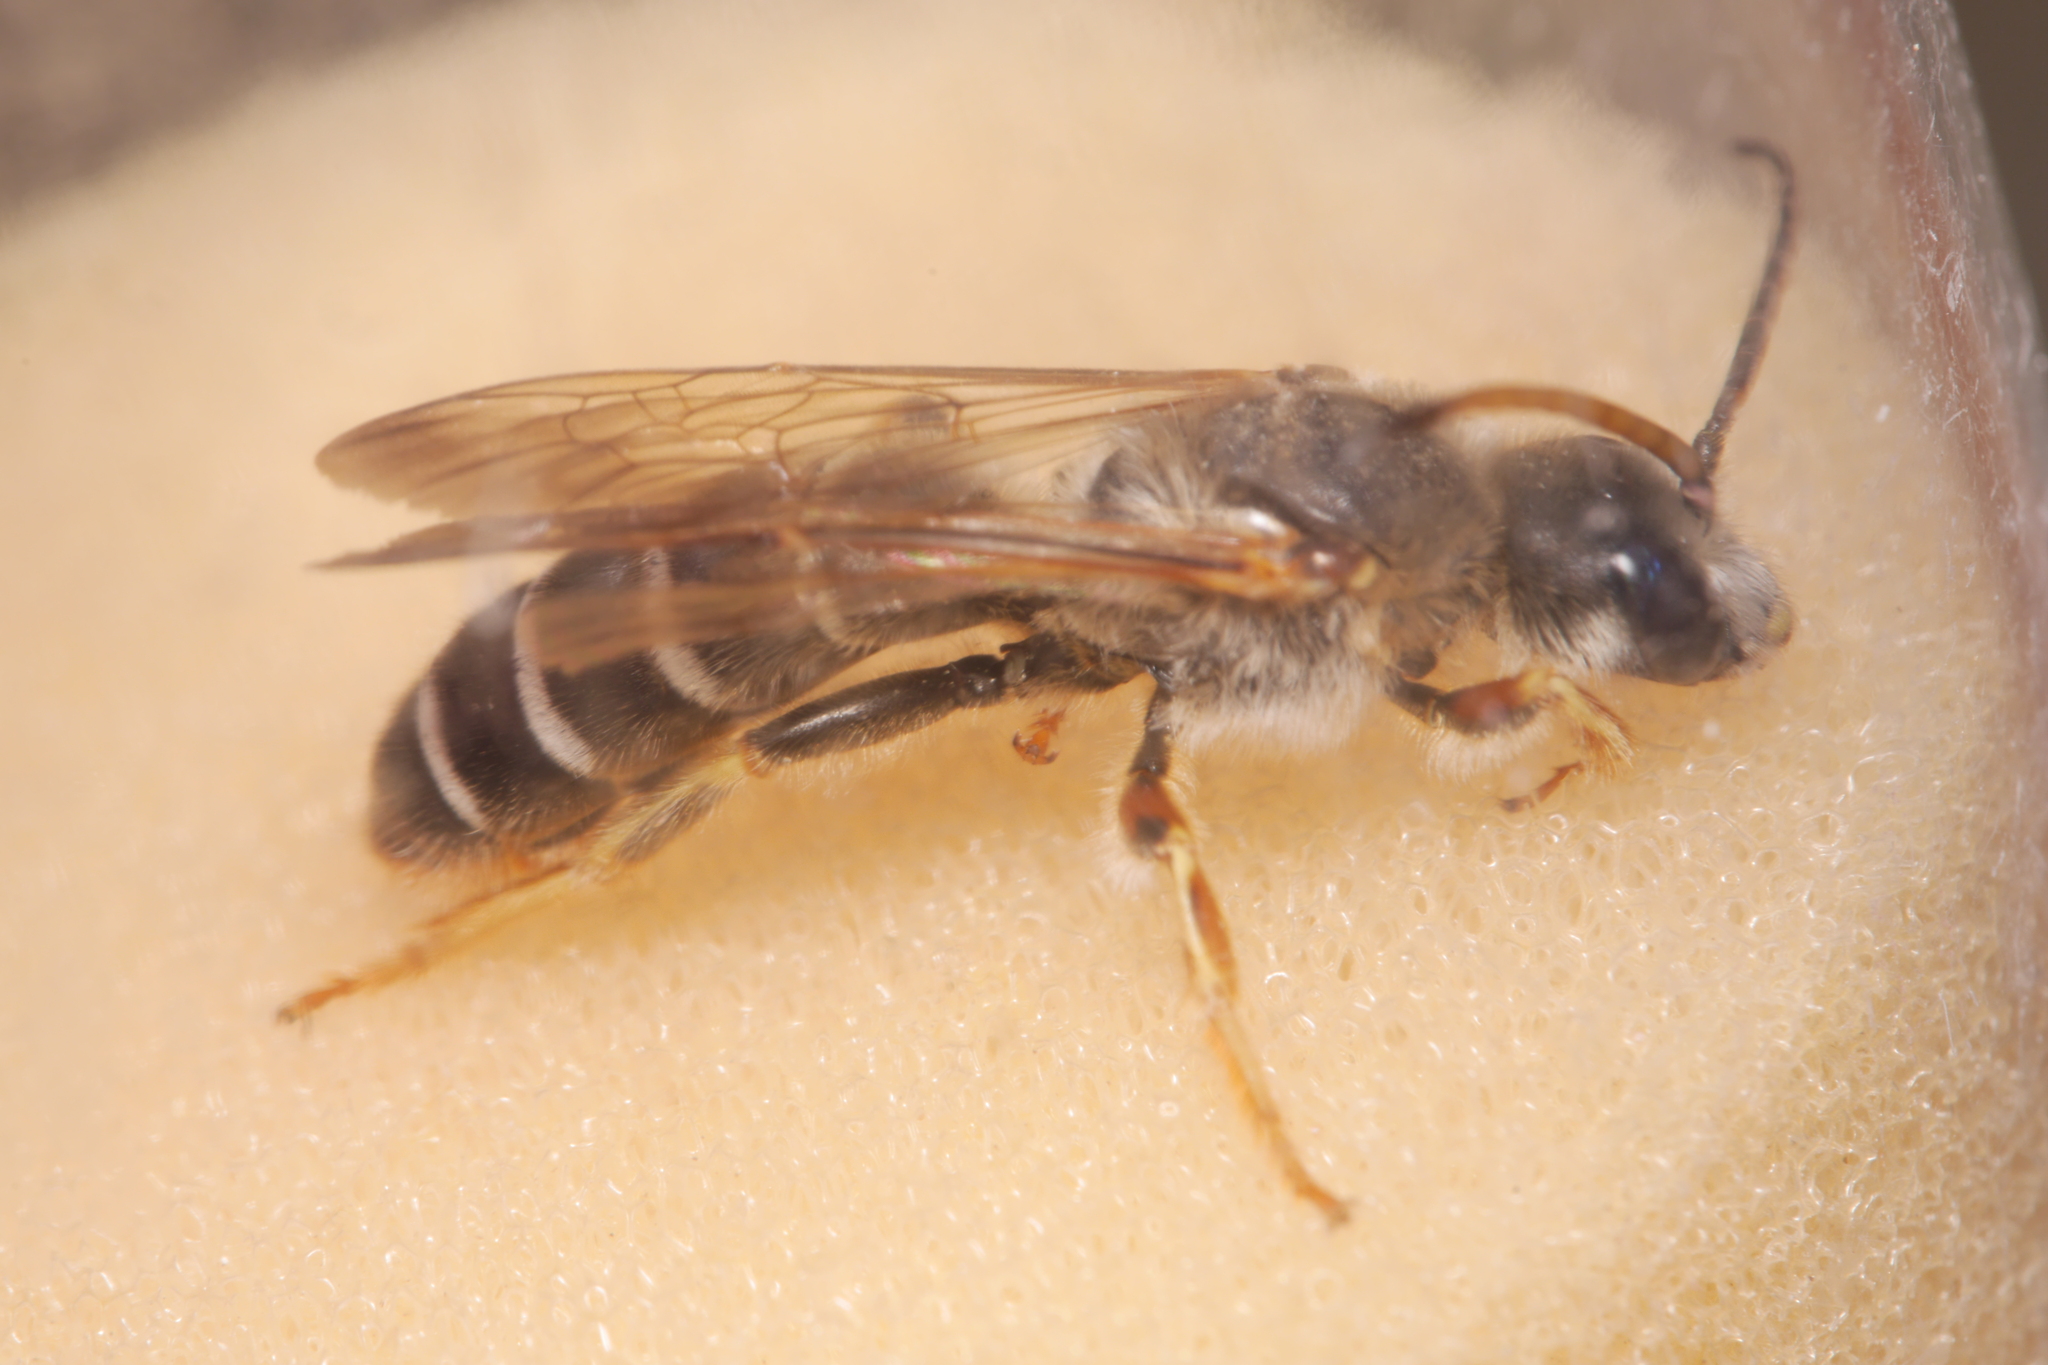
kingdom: Animalia
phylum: Arthropoda
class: Insecta
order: Hymenoptera
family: Halictidae
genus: Halictus
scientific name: Halictus quadricinctus
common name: Giant furrow bee
